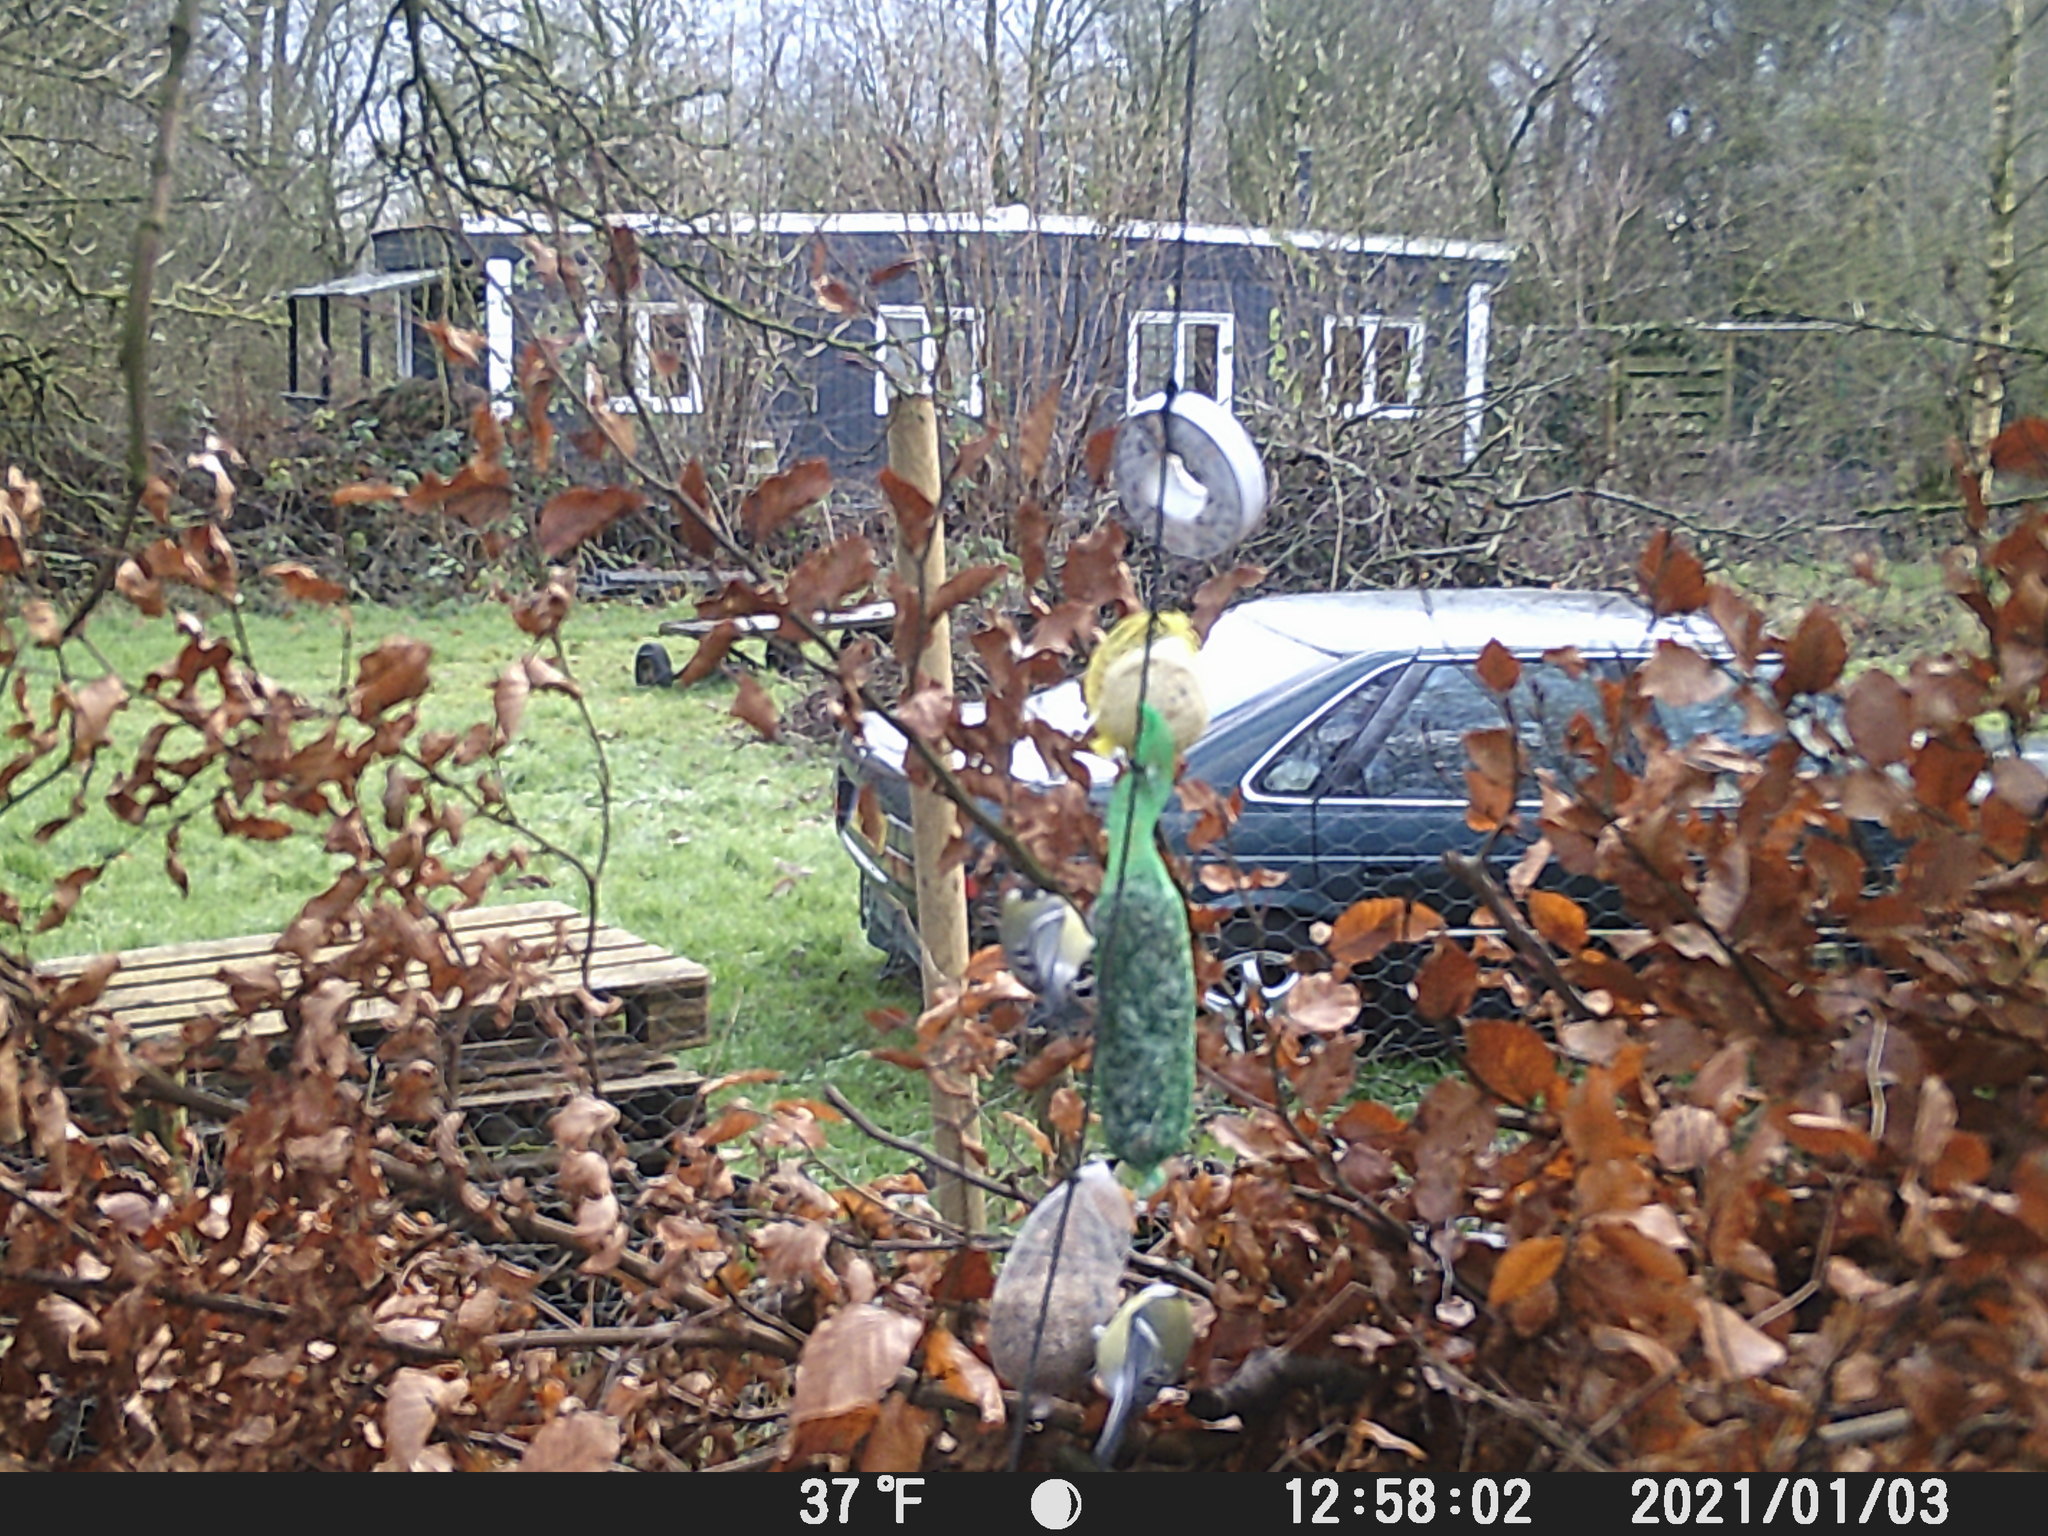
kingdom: Animalia
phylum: Chordata
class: Aves
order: Passeriformes
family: Paridae
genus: Parus
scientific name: Parus major
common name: Great tit
